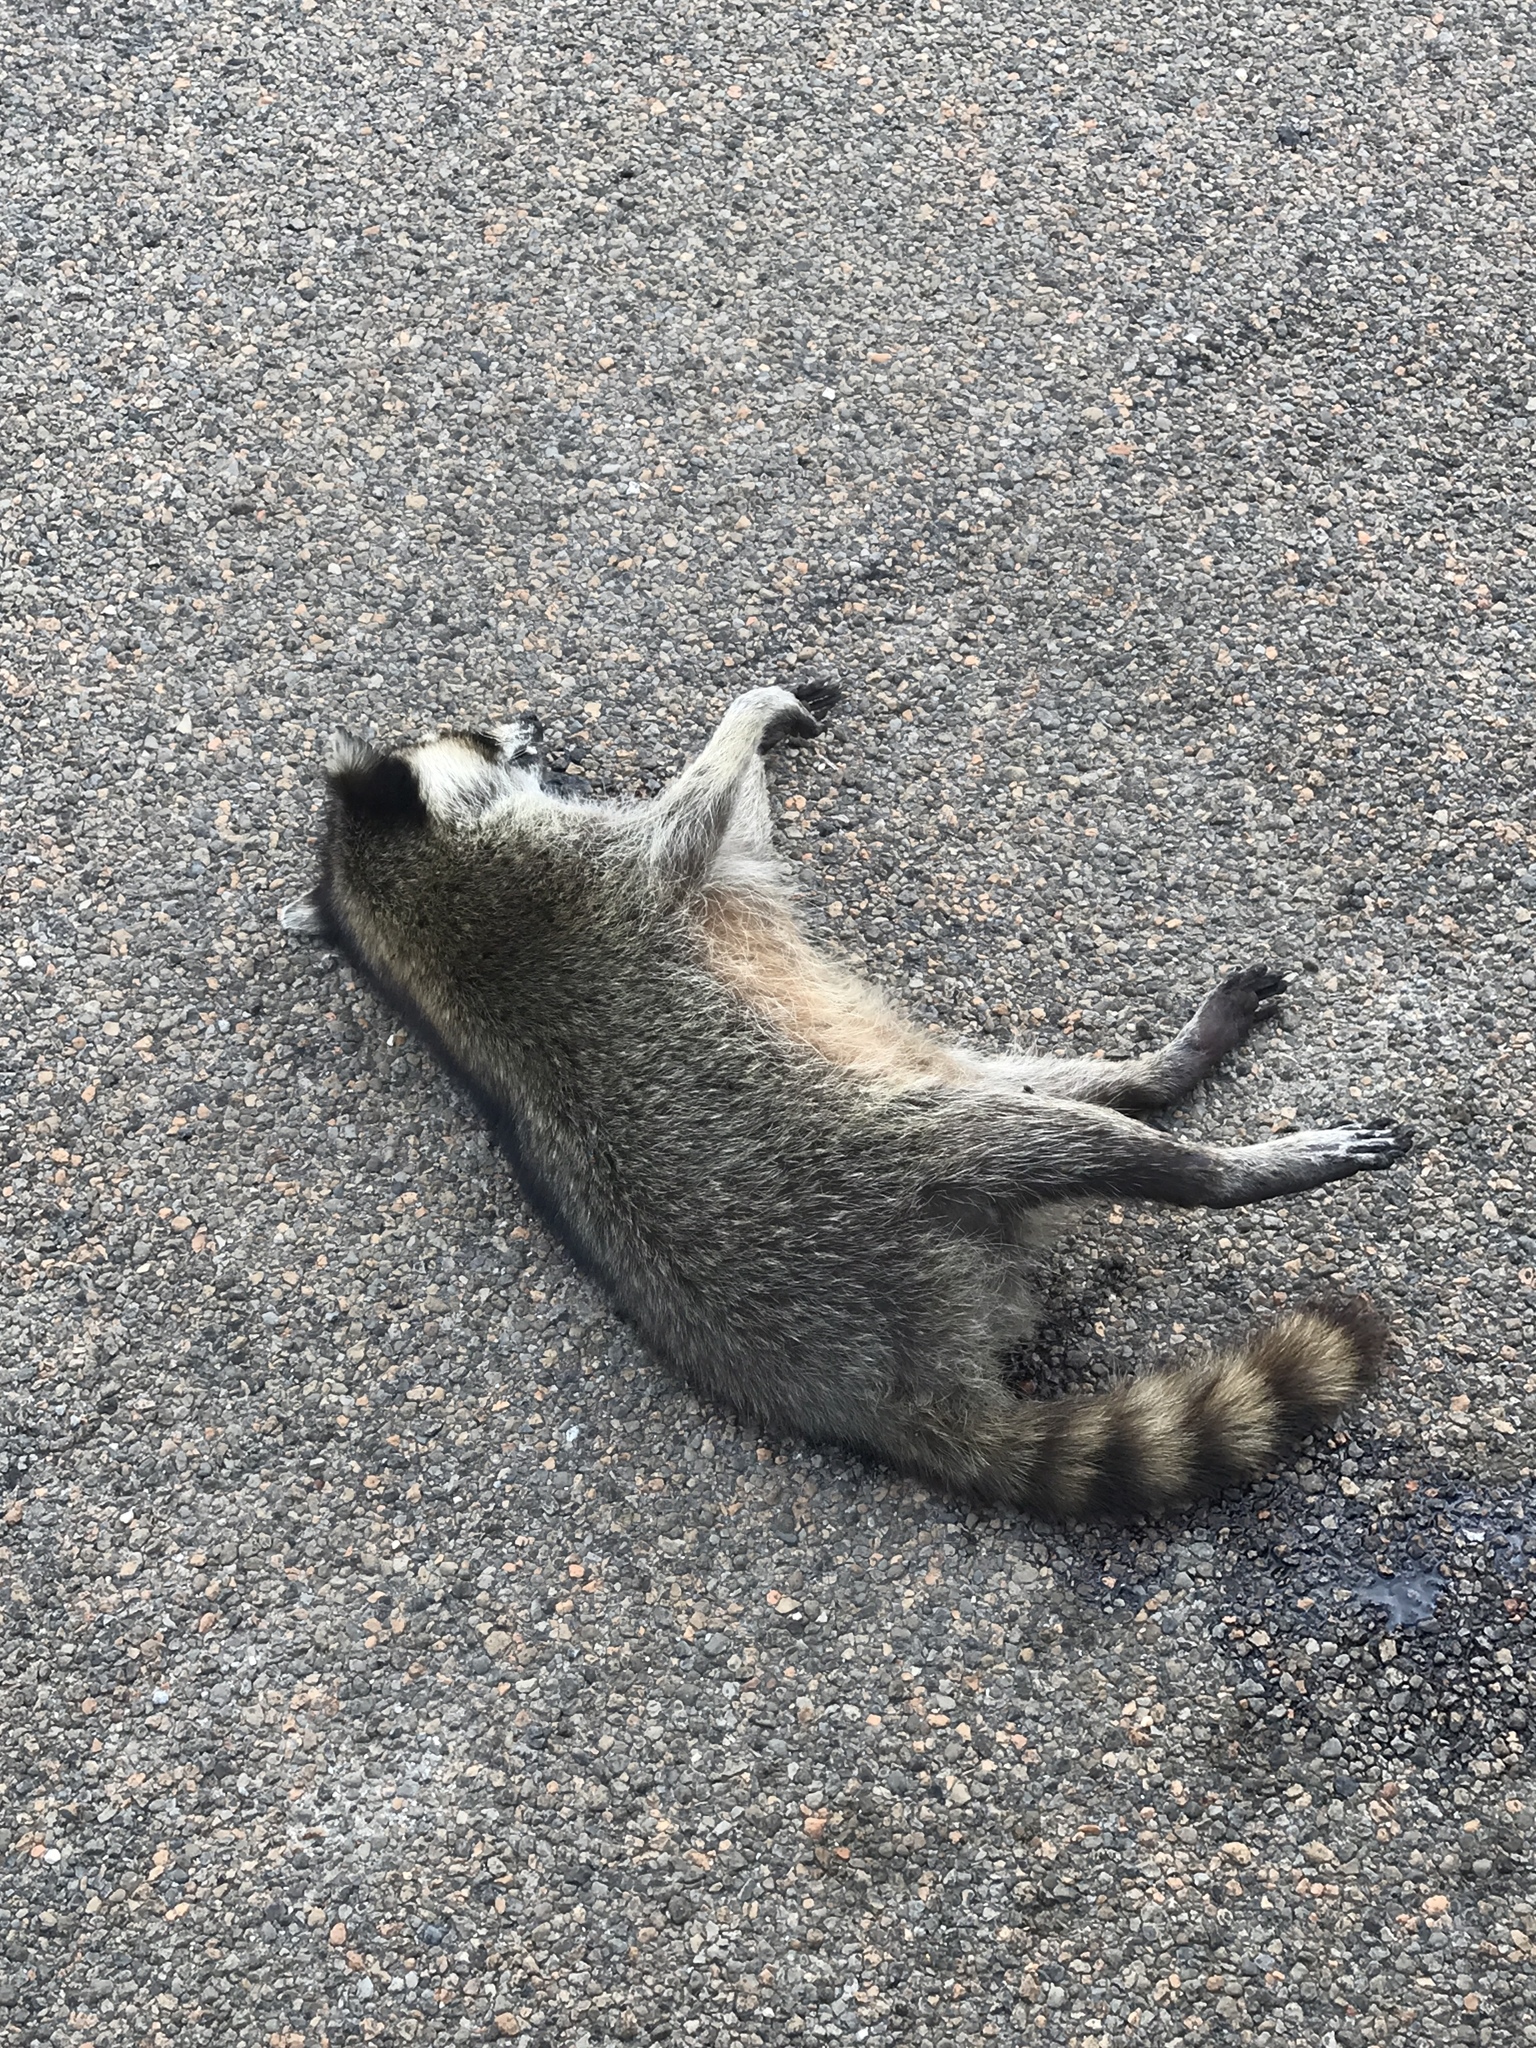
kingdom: Animalia
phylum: Chordata
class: Mammalia
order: Carnivora
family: Procyonidae
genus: Procyon
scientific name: Procyon lotor
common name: Raccoon
